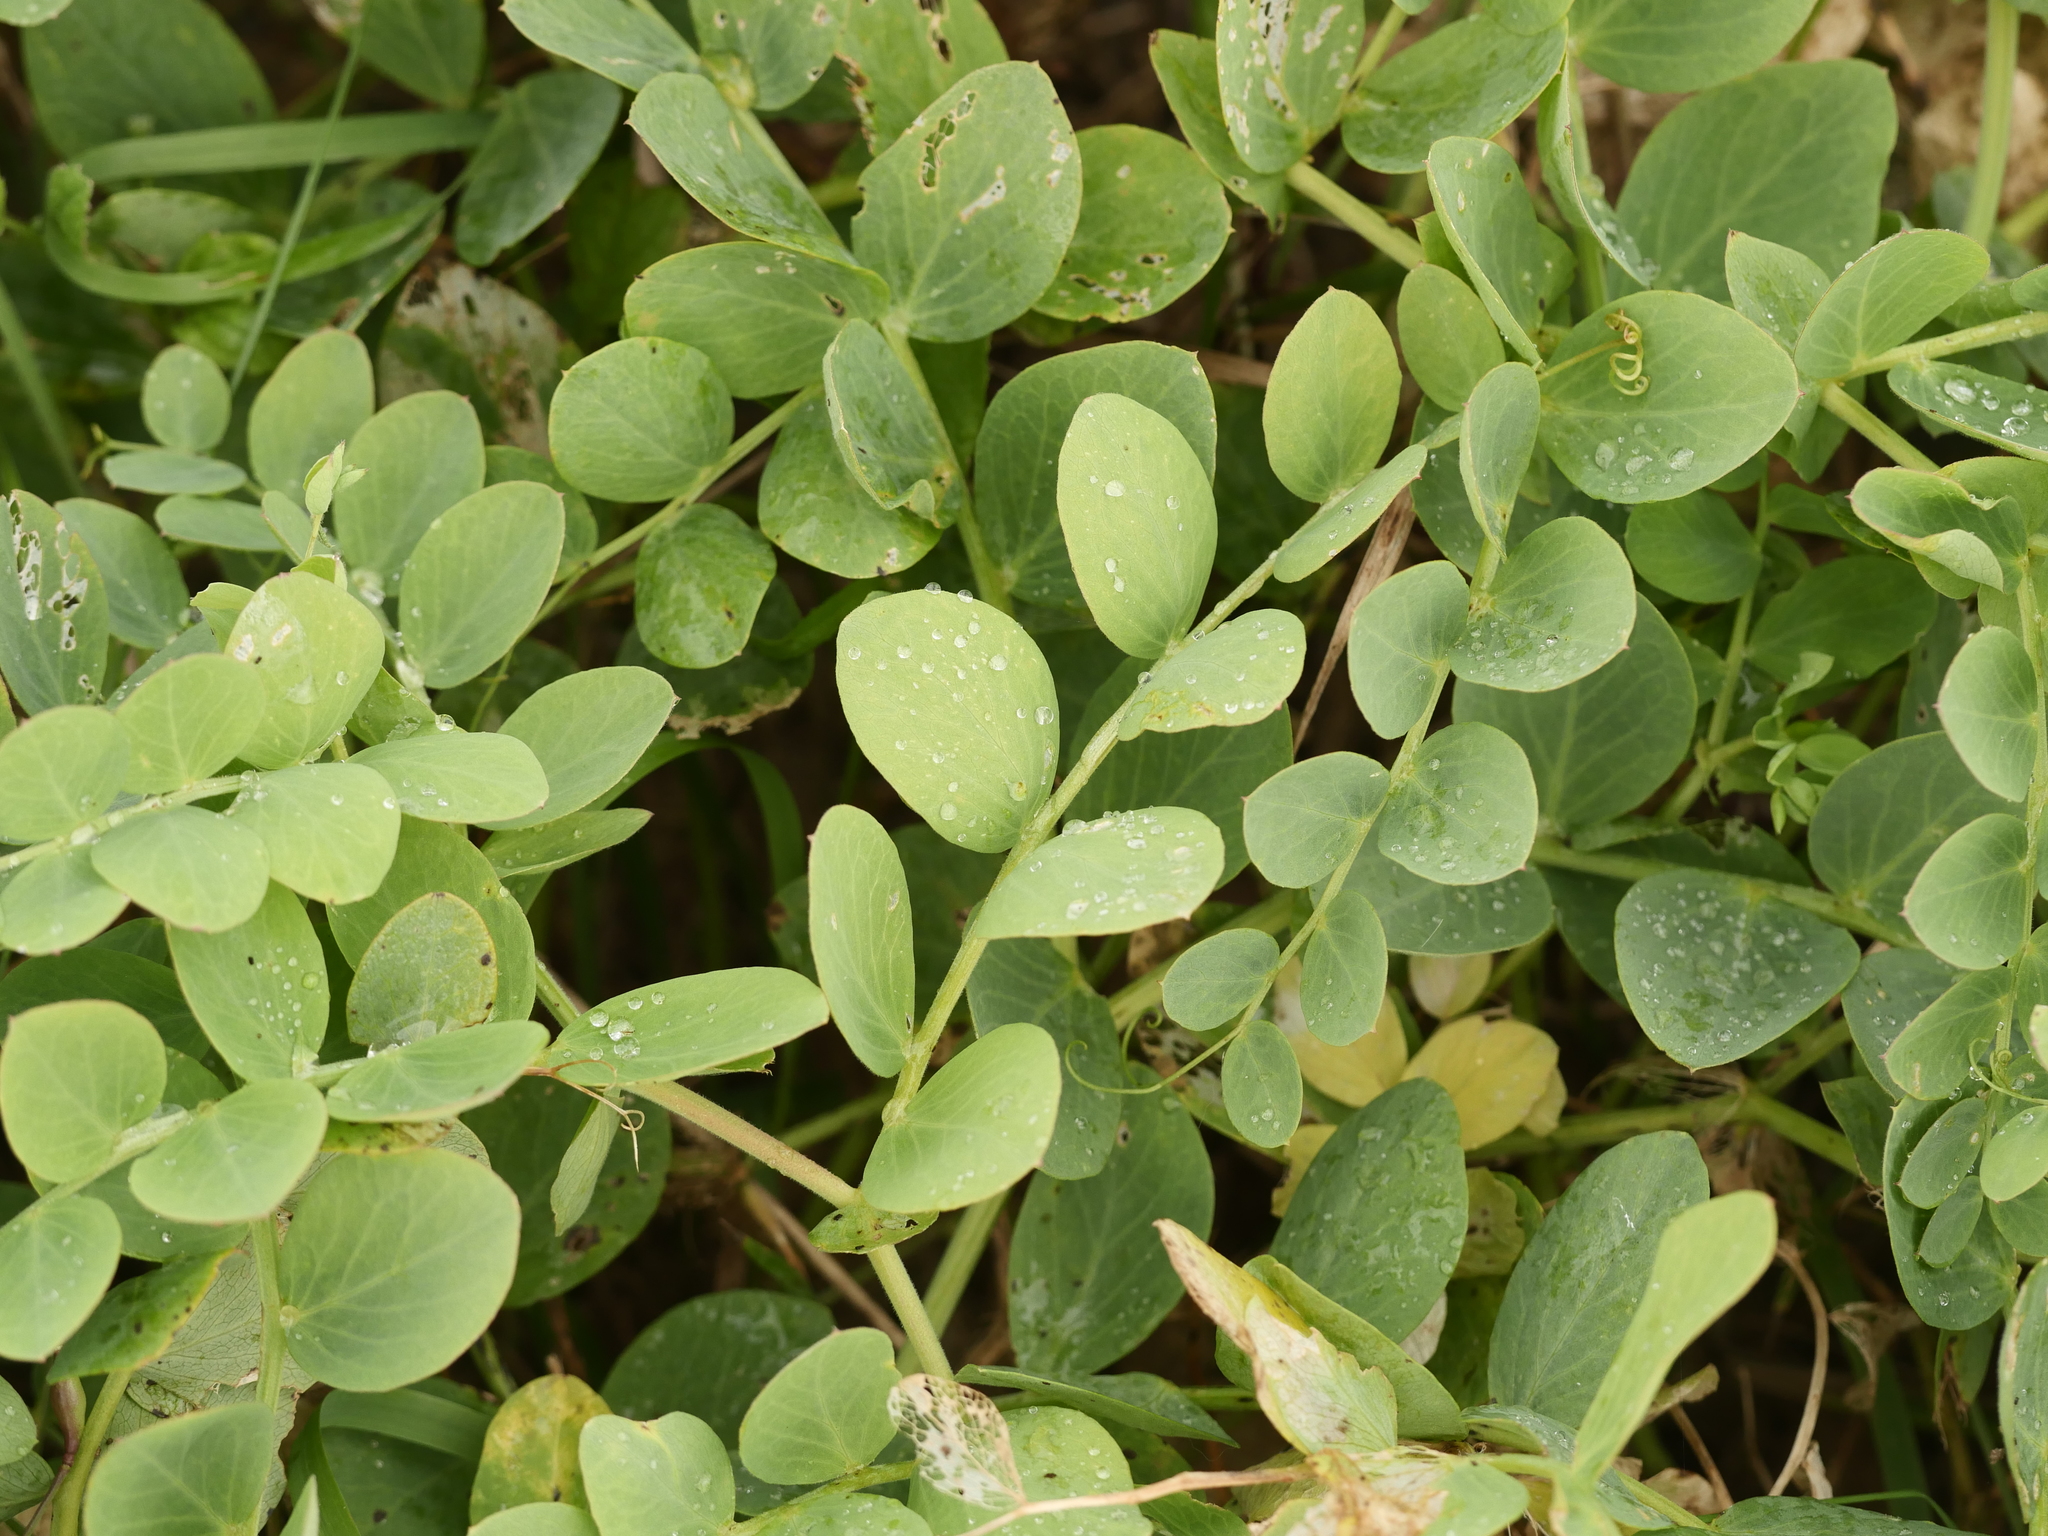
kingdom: Plantae
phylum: Tracheophyta
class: Magnoliopsida
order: Fabales
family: Fabaceae
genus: Lathyrus
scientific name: Lathyrus japonicus
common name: Sea pea
